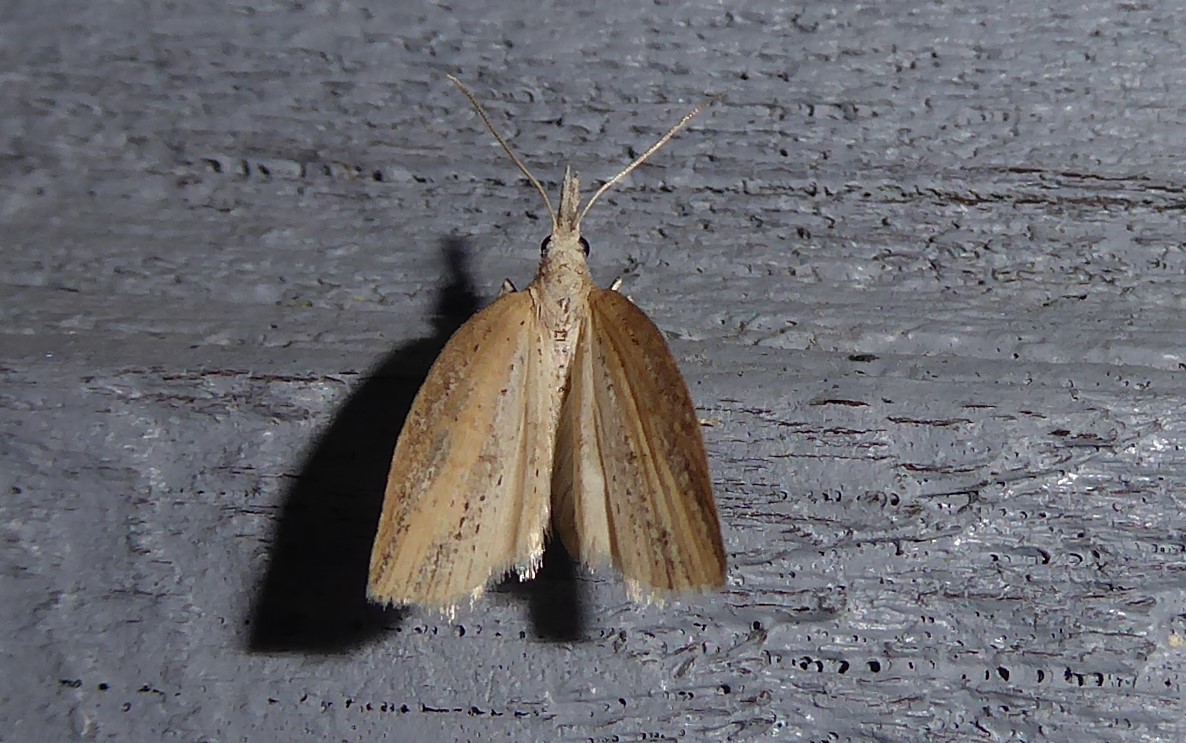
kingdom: Animalia
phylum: Arthropoda
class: Insecta
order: Lepidoptera
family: Geometridae
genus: Microdes
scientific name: Microdes epicryptis
